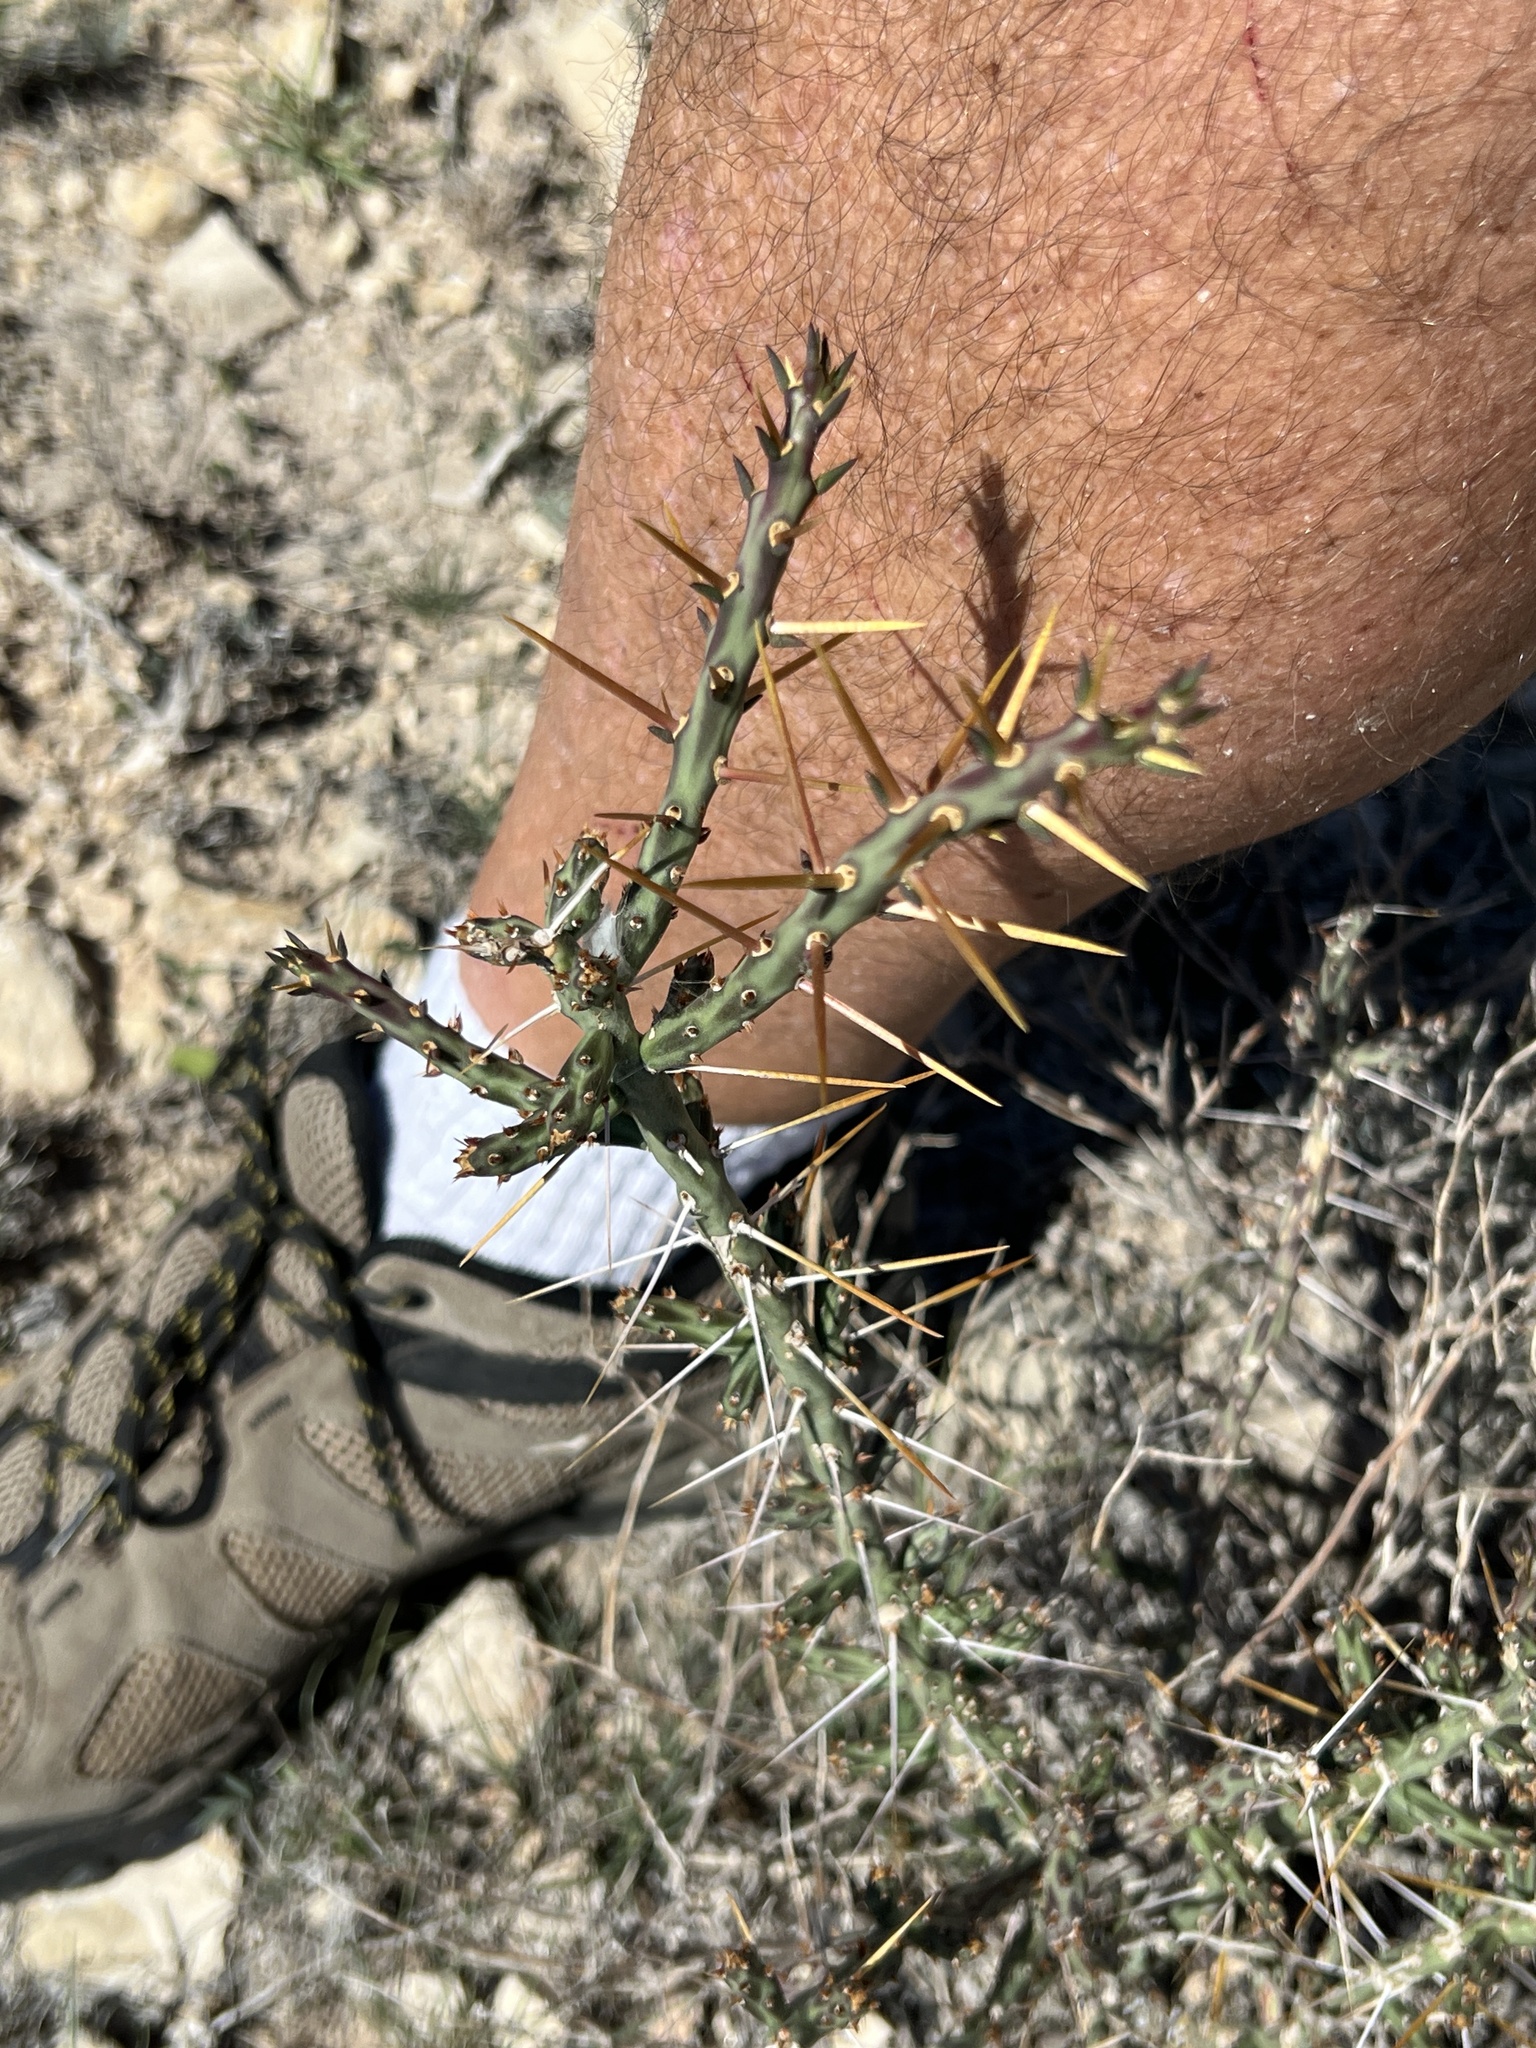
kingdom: Plantae
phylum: Tracheophyta
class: Magnoliopsida
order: Caryophyllales
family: Cactaceae
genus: Cylindropuntia
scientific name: Cylindropuntia leptocaulis
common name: Christmas cactus
